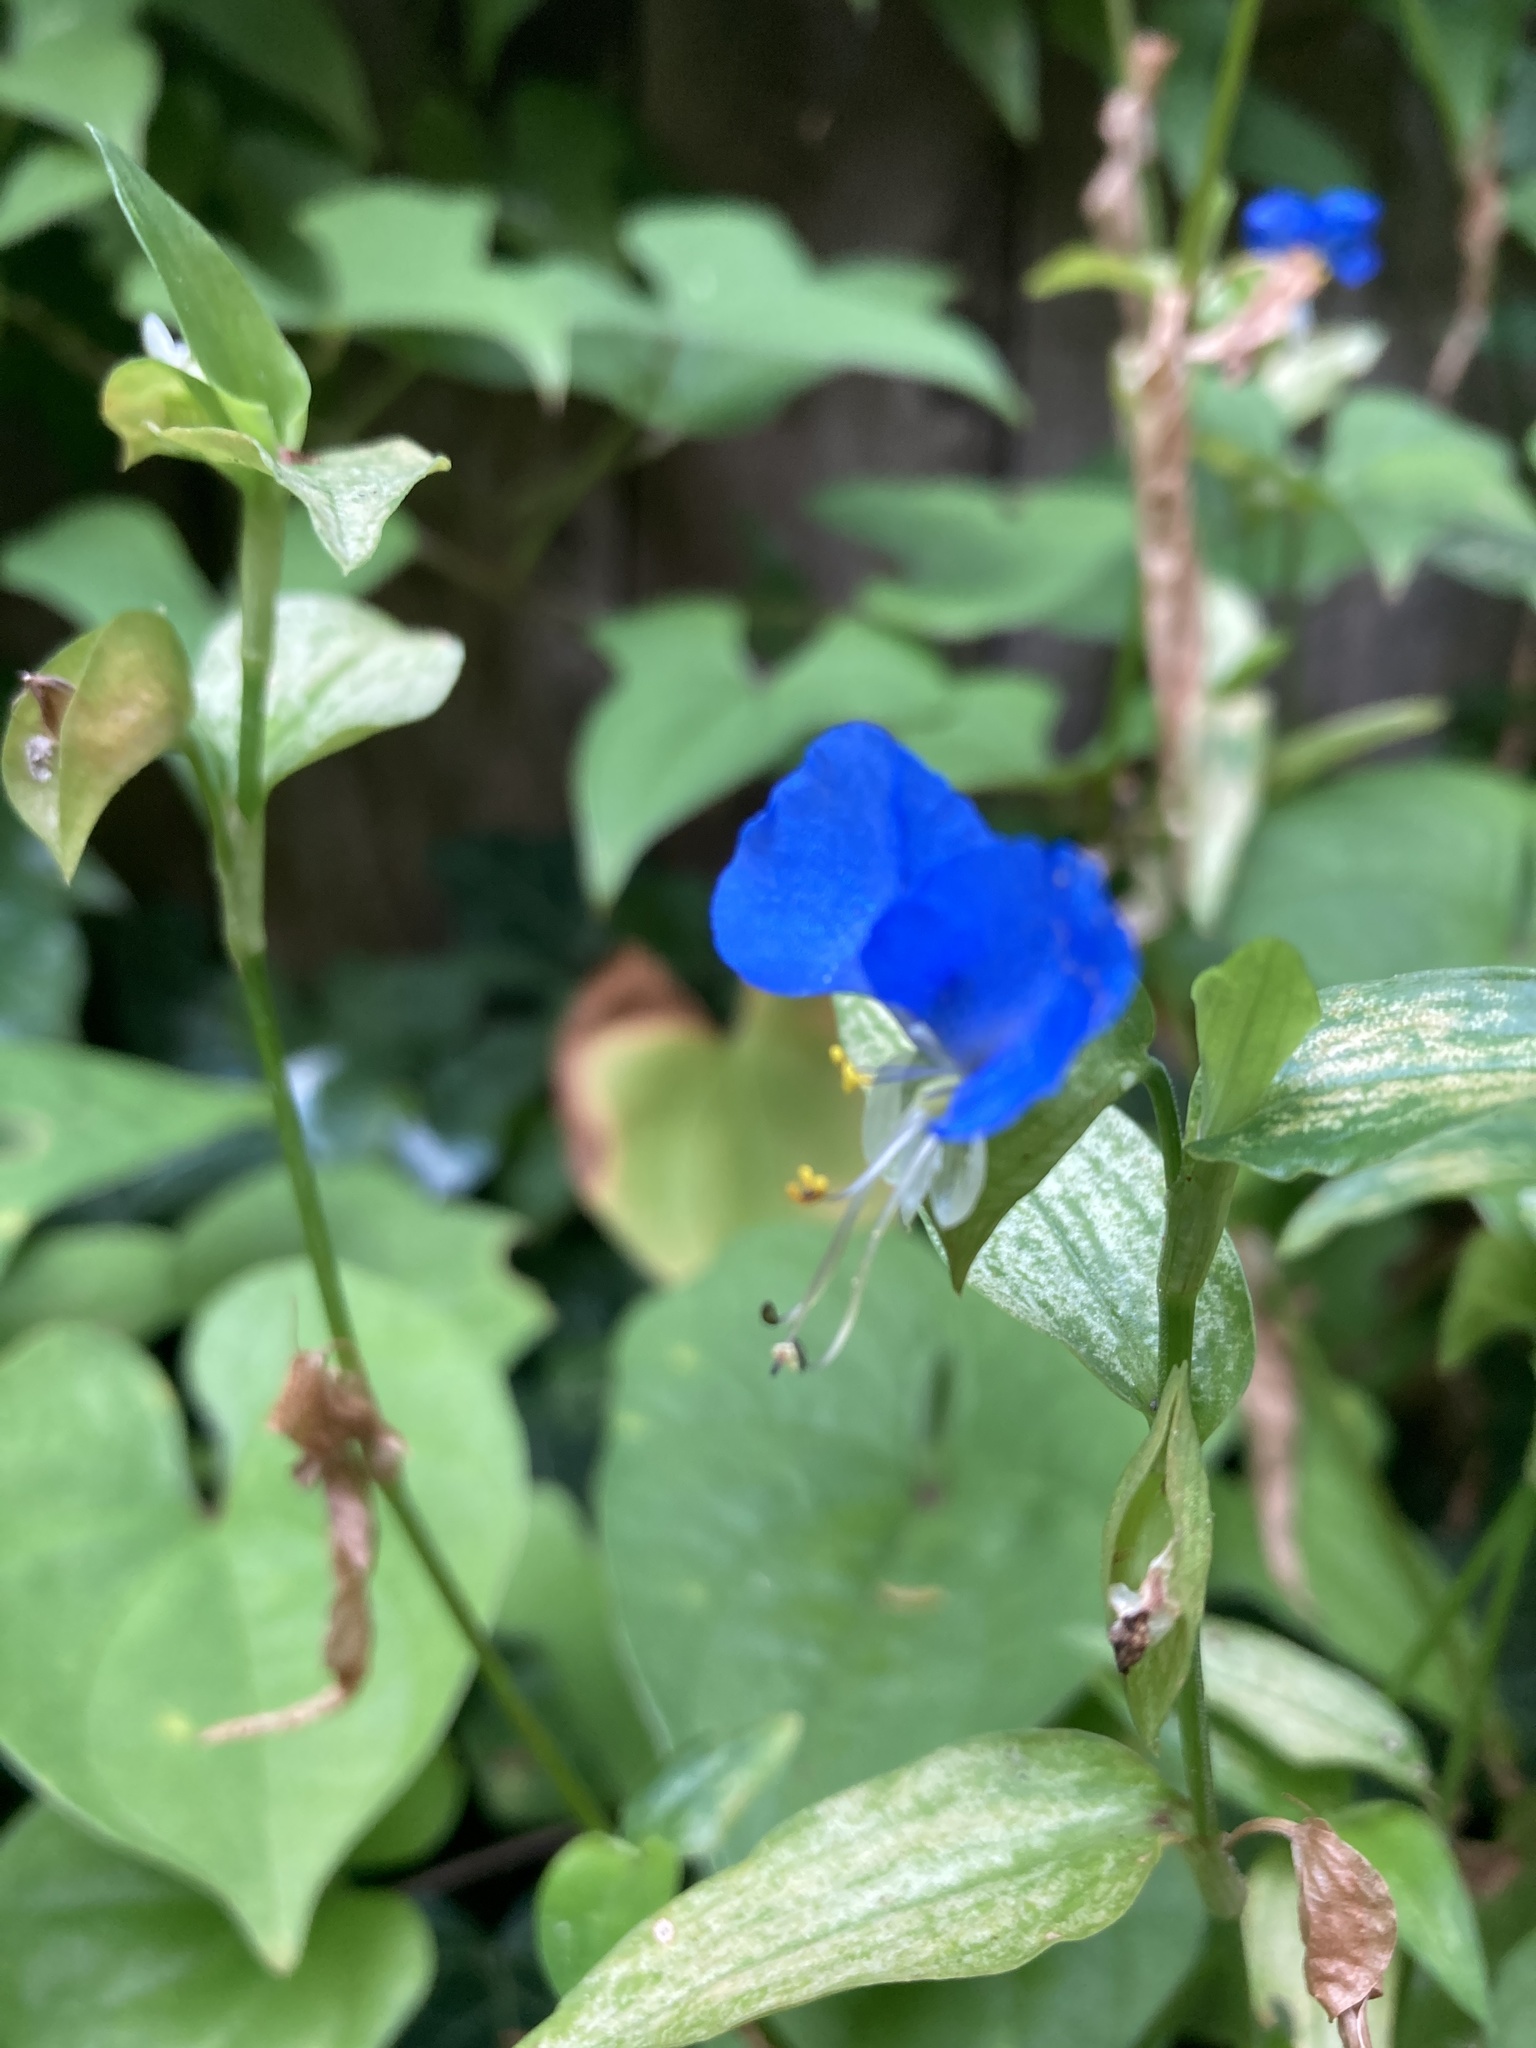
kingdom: Plantae
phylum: Tracheophyta
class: Liliopsida
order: Commelinales
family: Commelinaceae
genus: Commelina
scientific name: Commelina communis
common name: Asiatic dayflower
